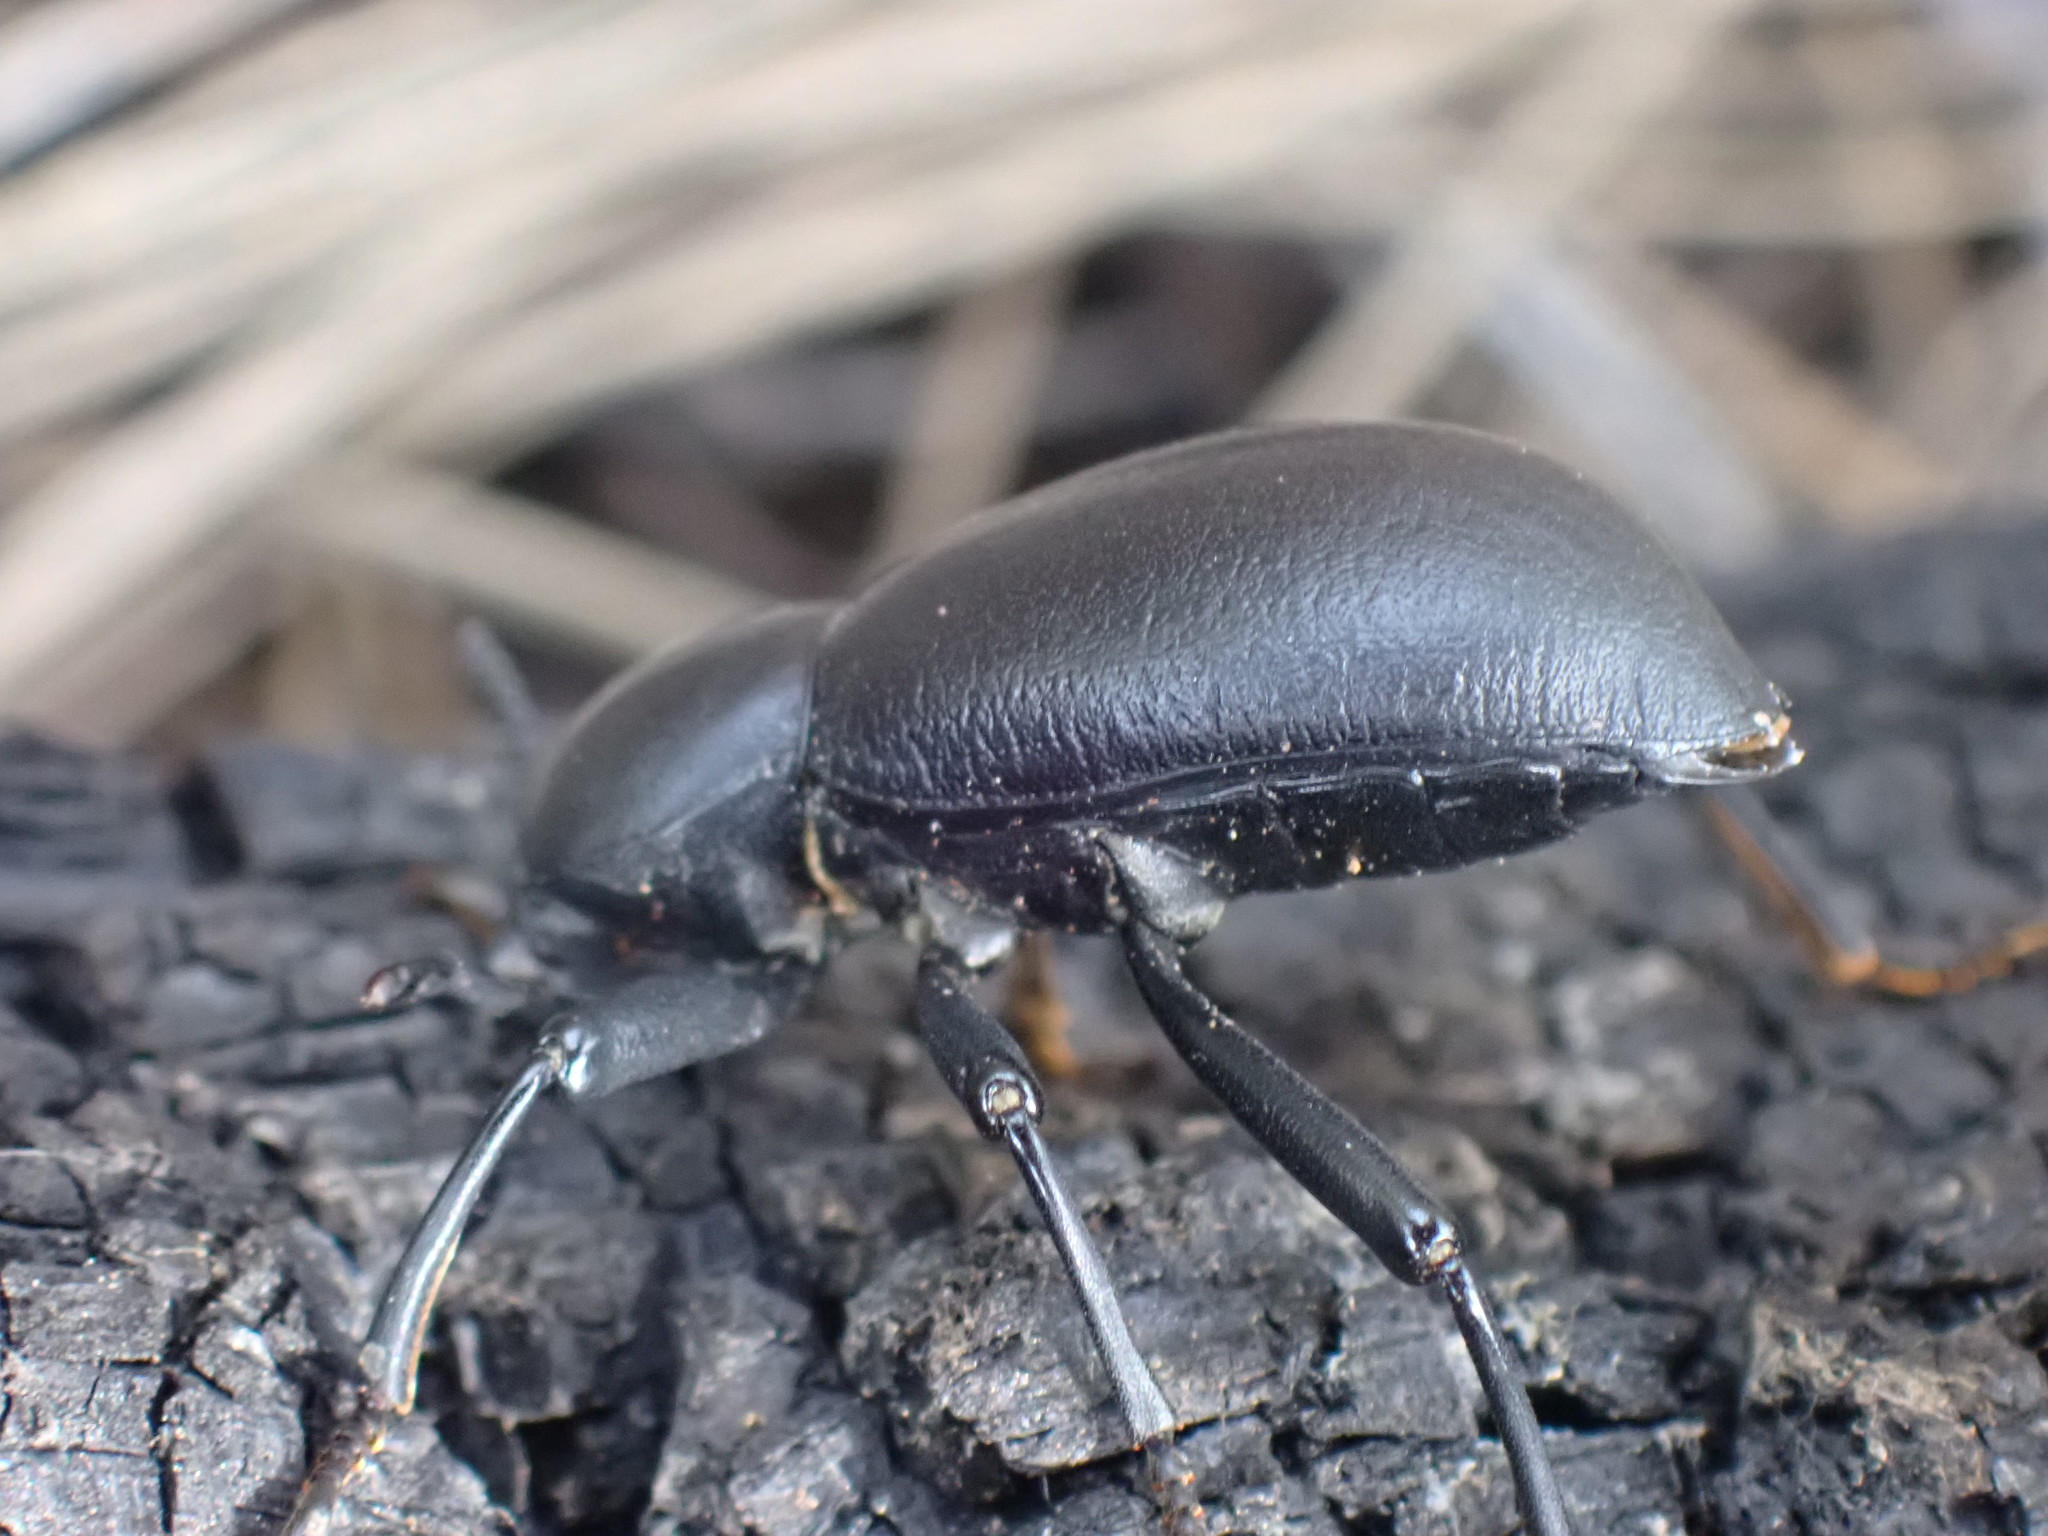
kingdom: Animalia
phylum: Arthropoda
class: Insecta
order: Coleoptera
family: Tenebrionidae
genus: Coelocnemis
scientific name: Coelocnemis dilaticollis
